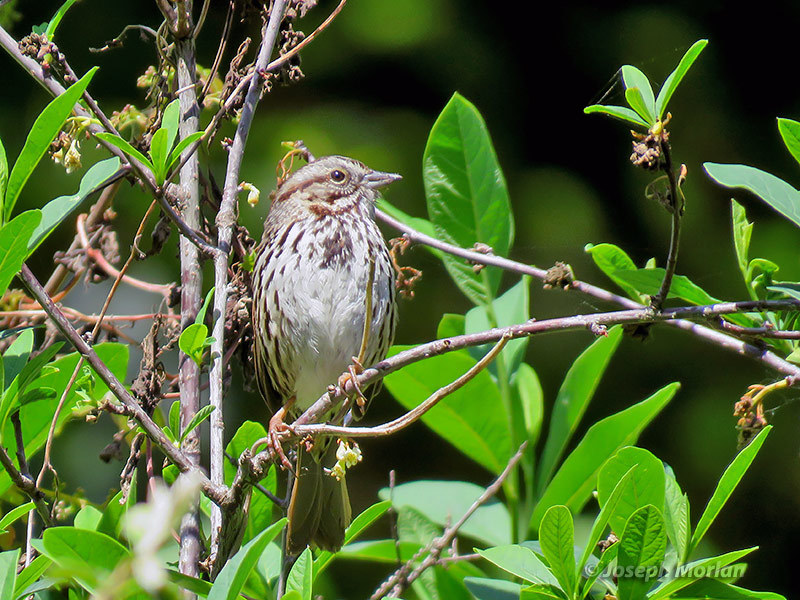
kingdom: Animalia
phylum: Chordata
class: Aves
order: Passeriformes
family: Passerellidae
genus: Melospiza
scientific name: Melospiza melodia
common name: Song sparrow
